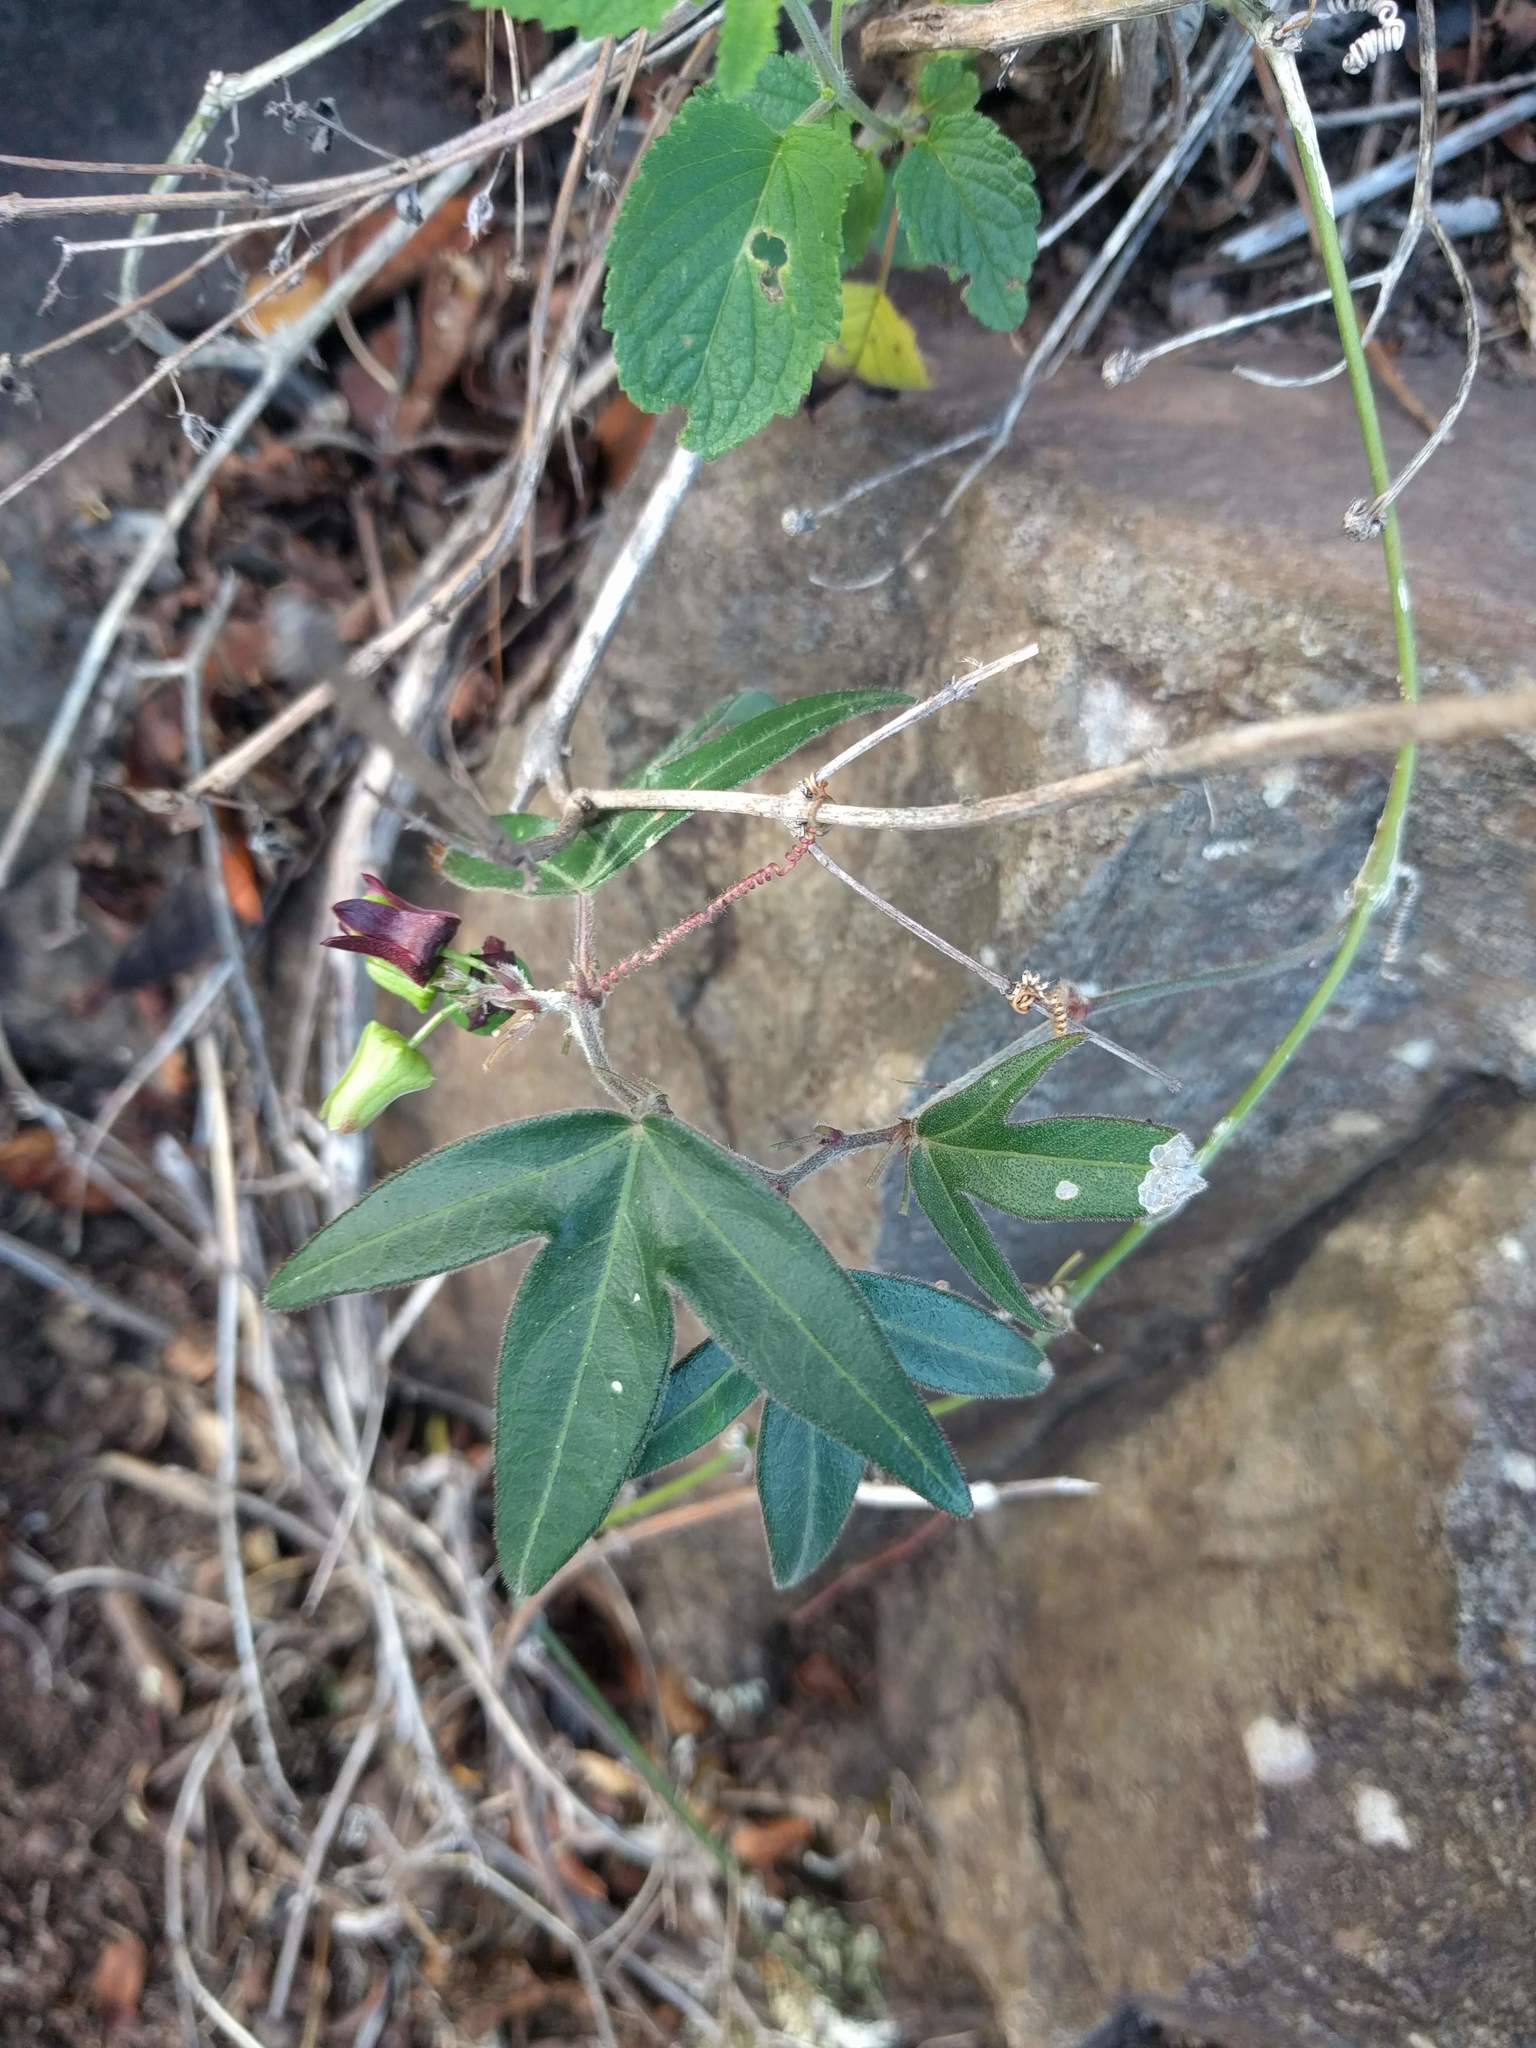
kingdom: Plantae
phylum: Tracheophyta
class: Magnoliopsida
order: Malpighiales
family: Passifloraceae
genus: Passiflora
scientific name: Passiflora suberosa
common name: Wild passionfruit
